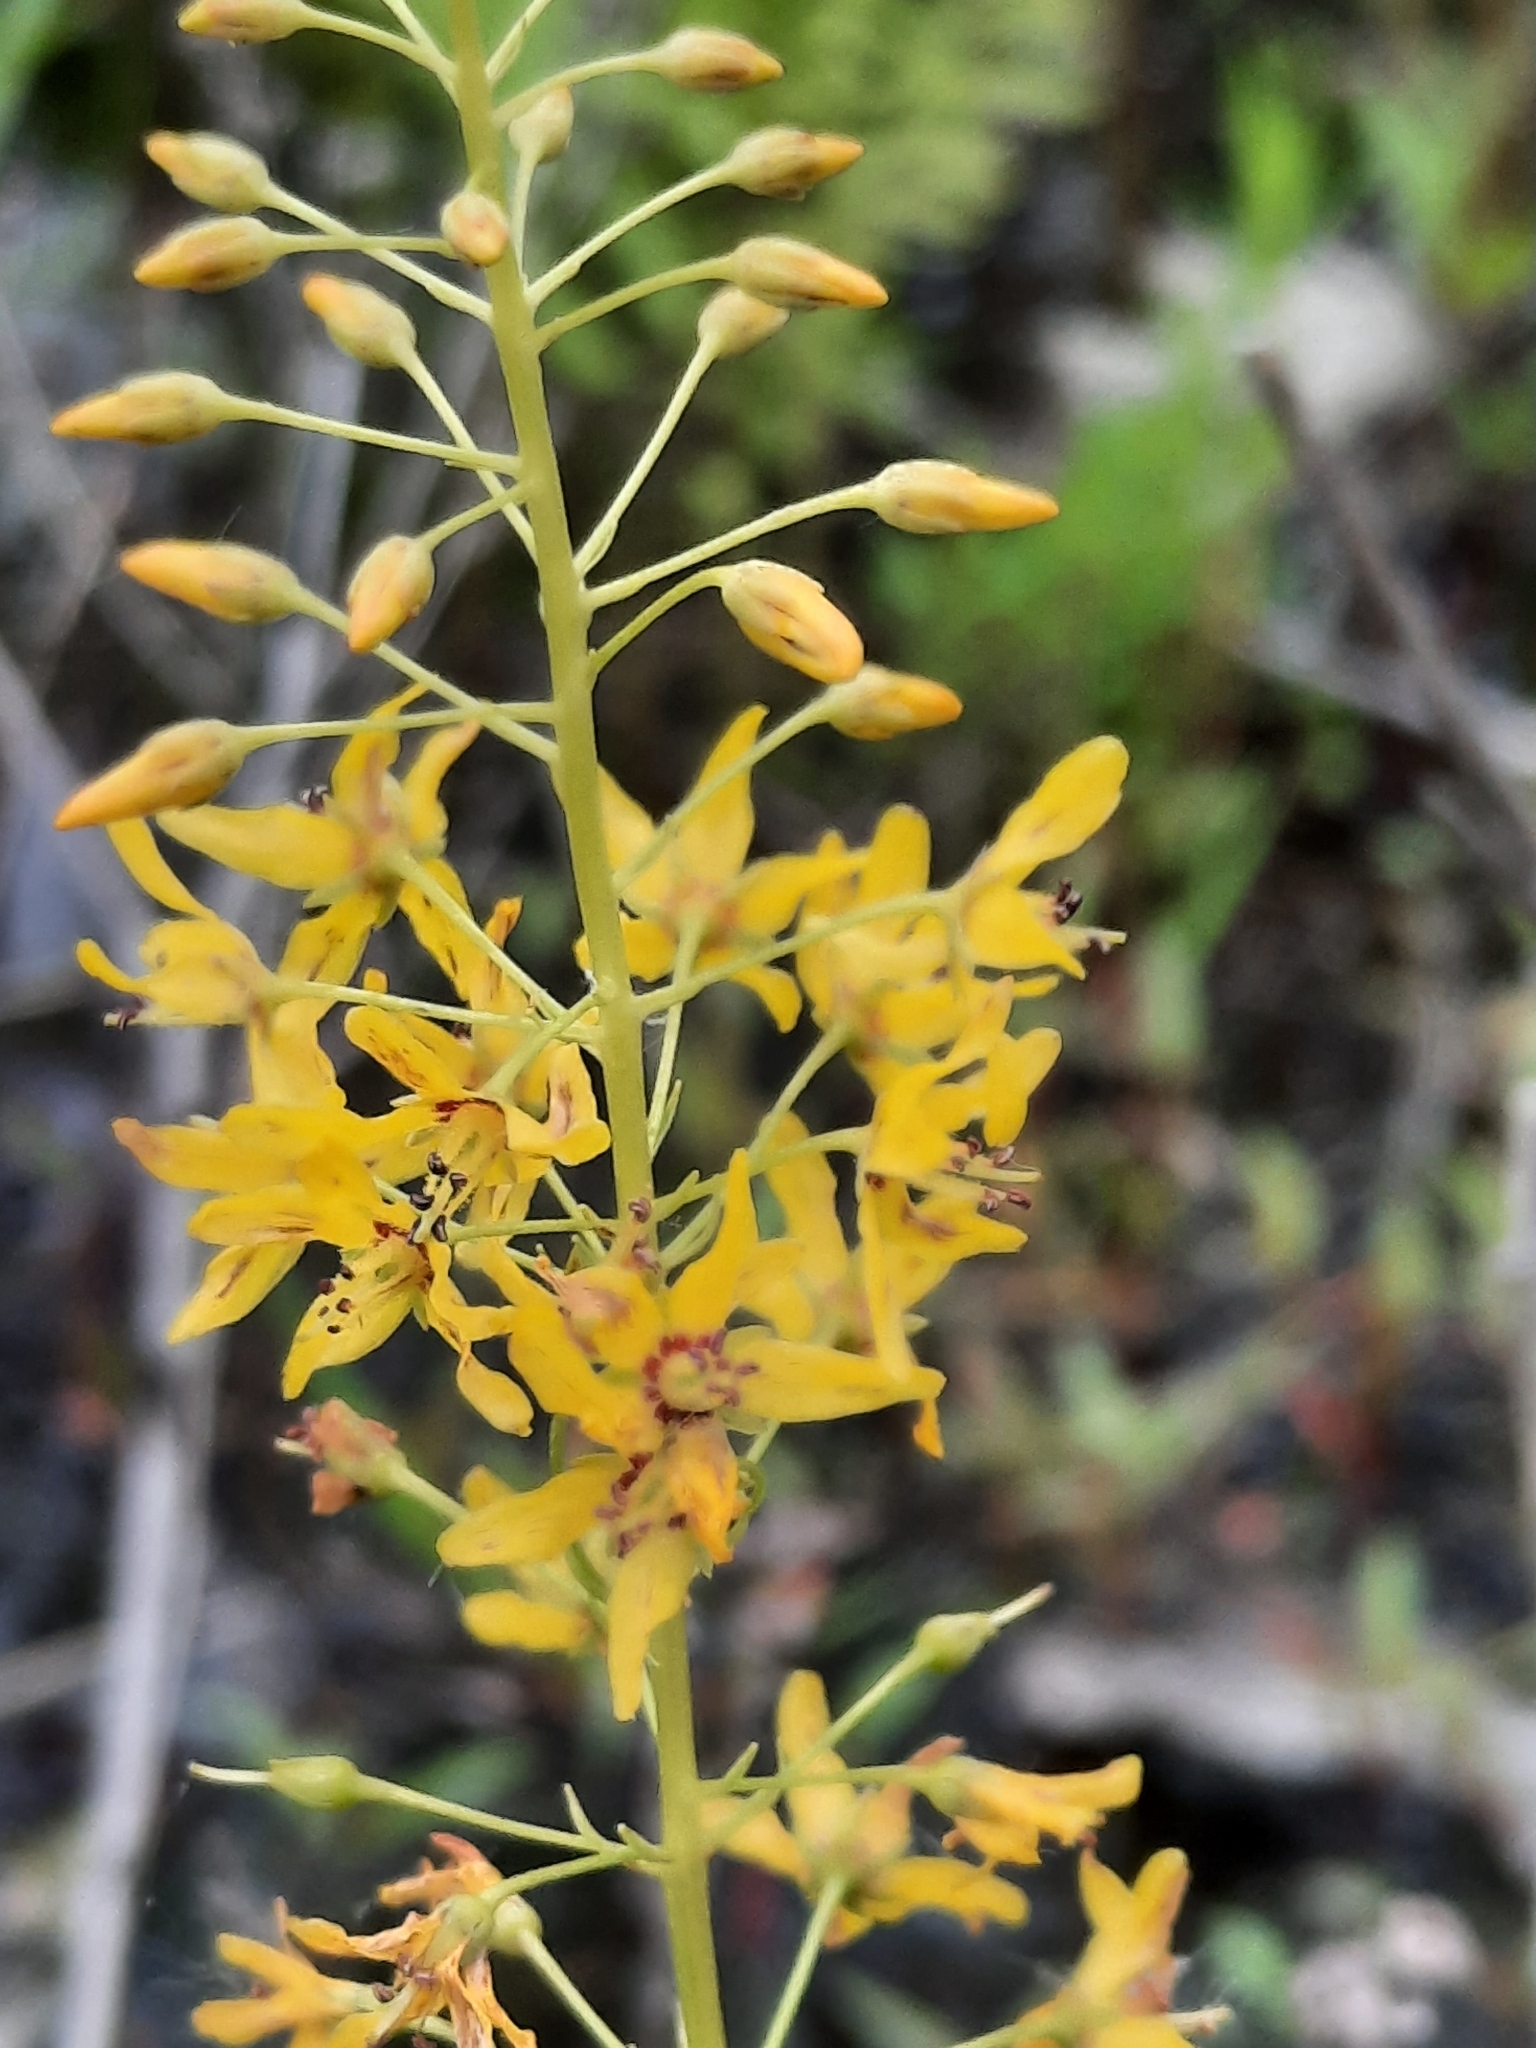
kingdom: Plantae
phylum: Tracheophyta
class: Magnoliopsida
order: Ericales
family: Primulaceae
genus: Lysimachia
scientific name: Lysimachia terrestris
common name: Lake loosestrife
